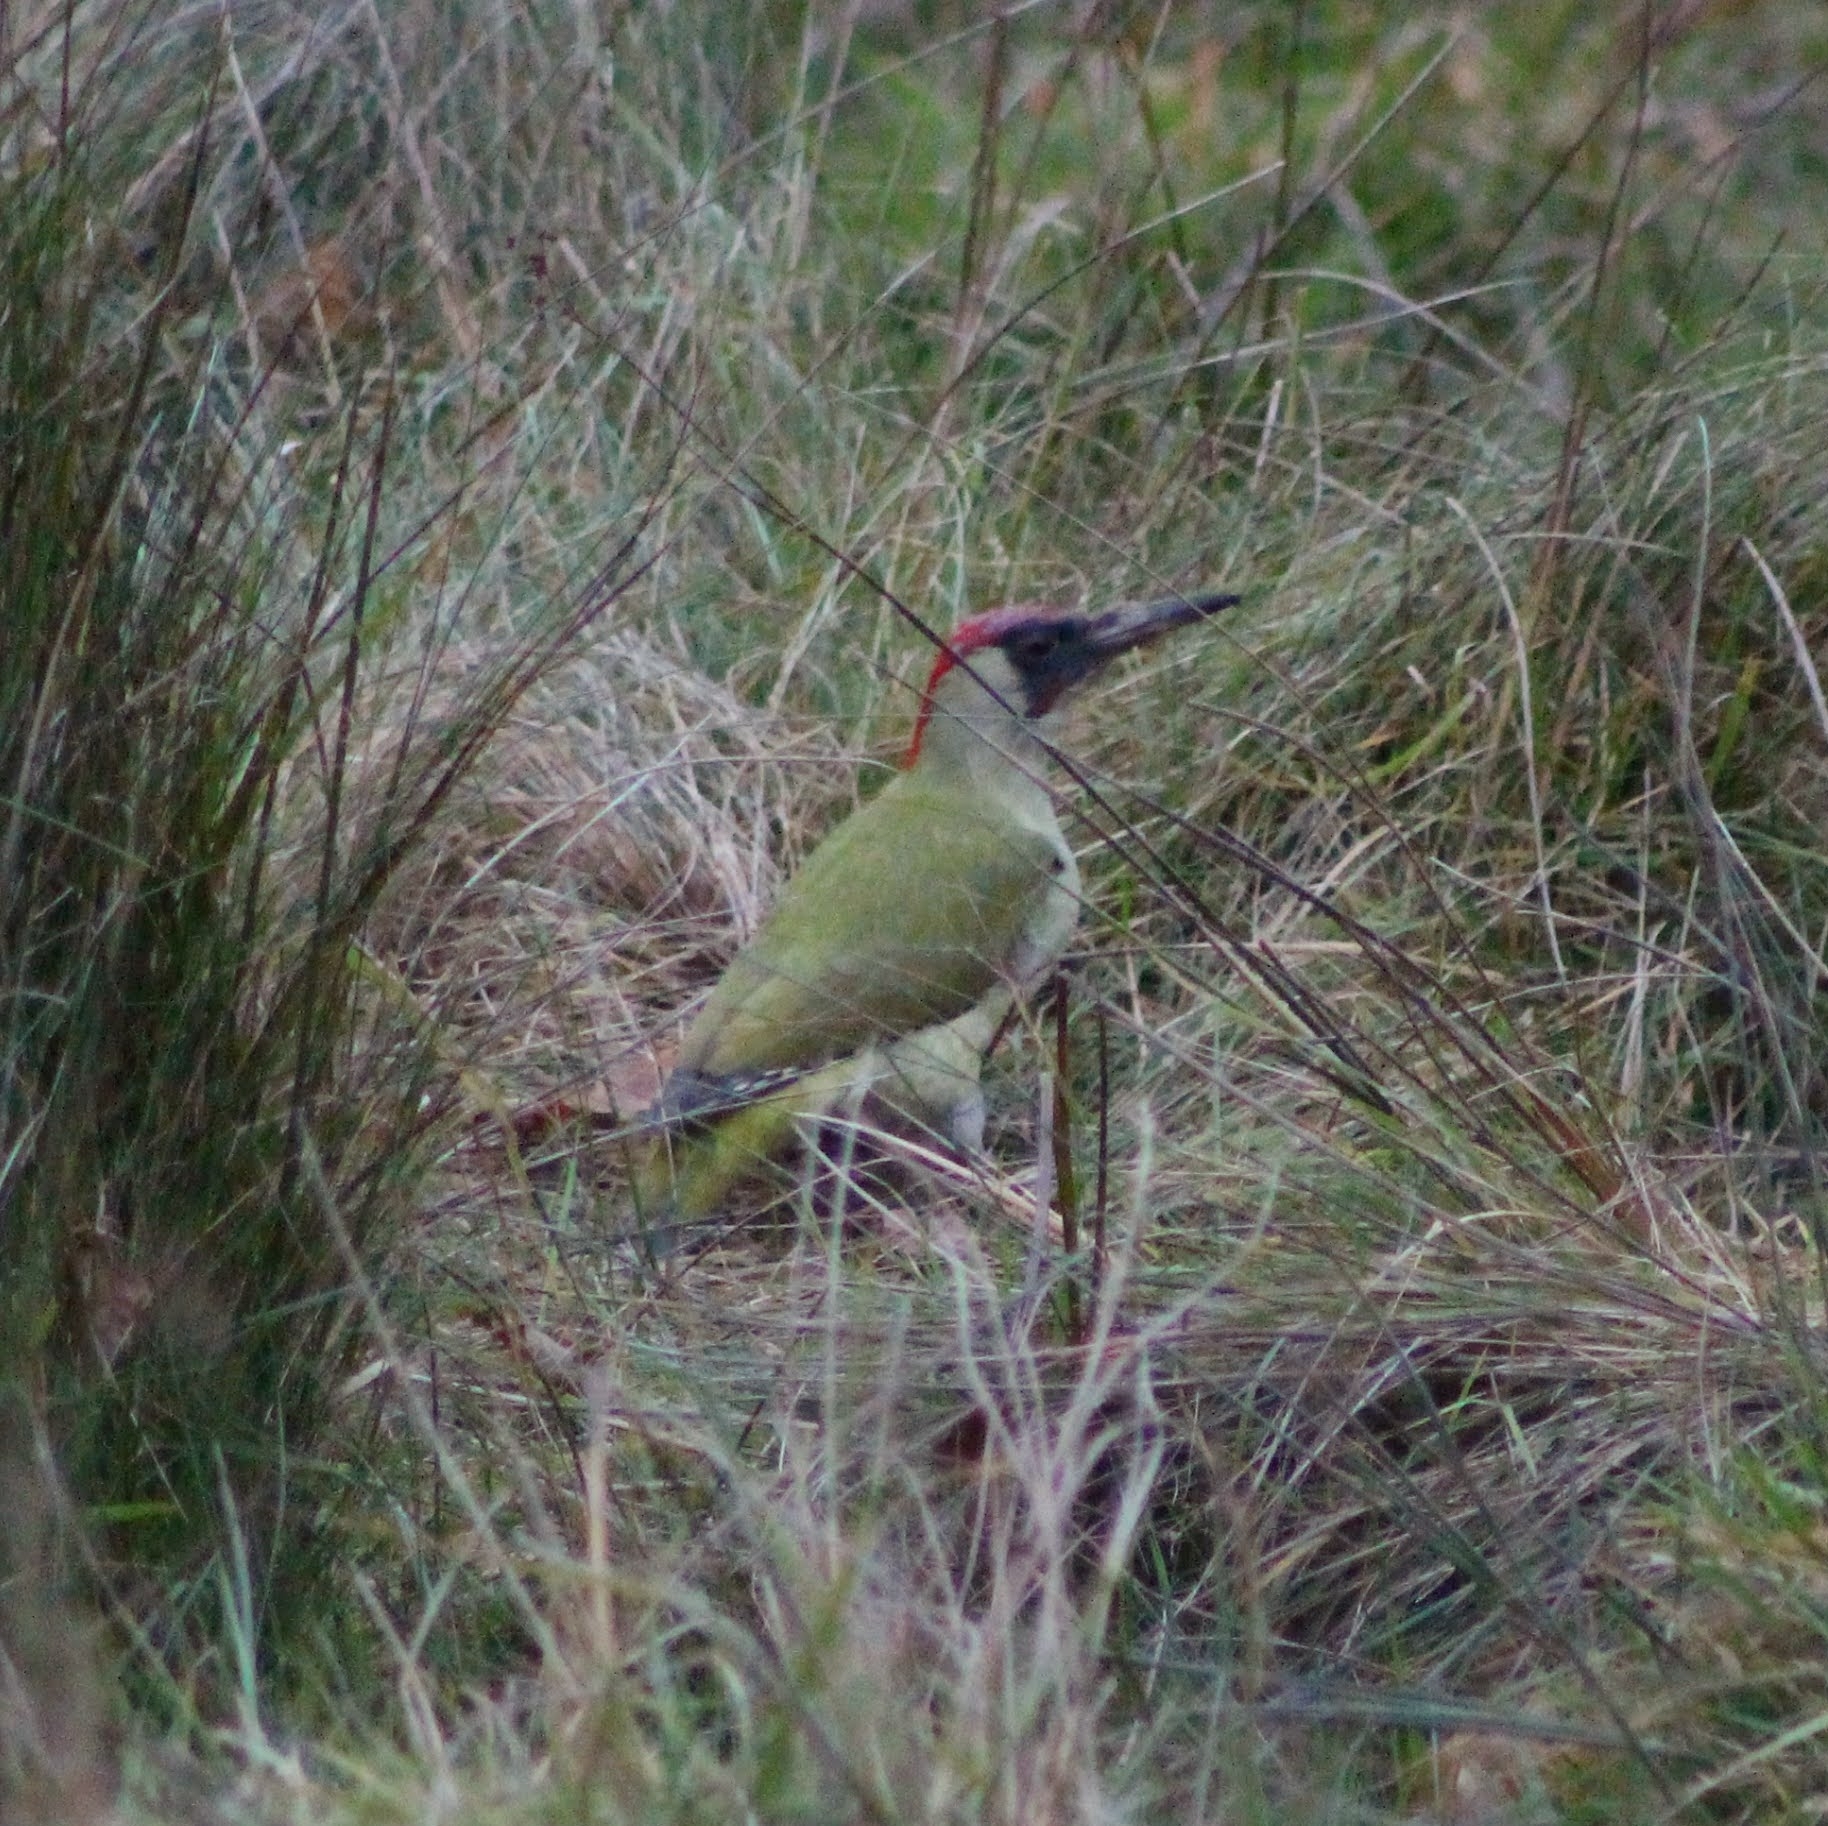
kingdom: Animalia
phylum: Chordata
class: Aves
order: Piciformes
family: Picidae
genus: Picus
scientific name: Picus viridis
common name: European green woodpecker
